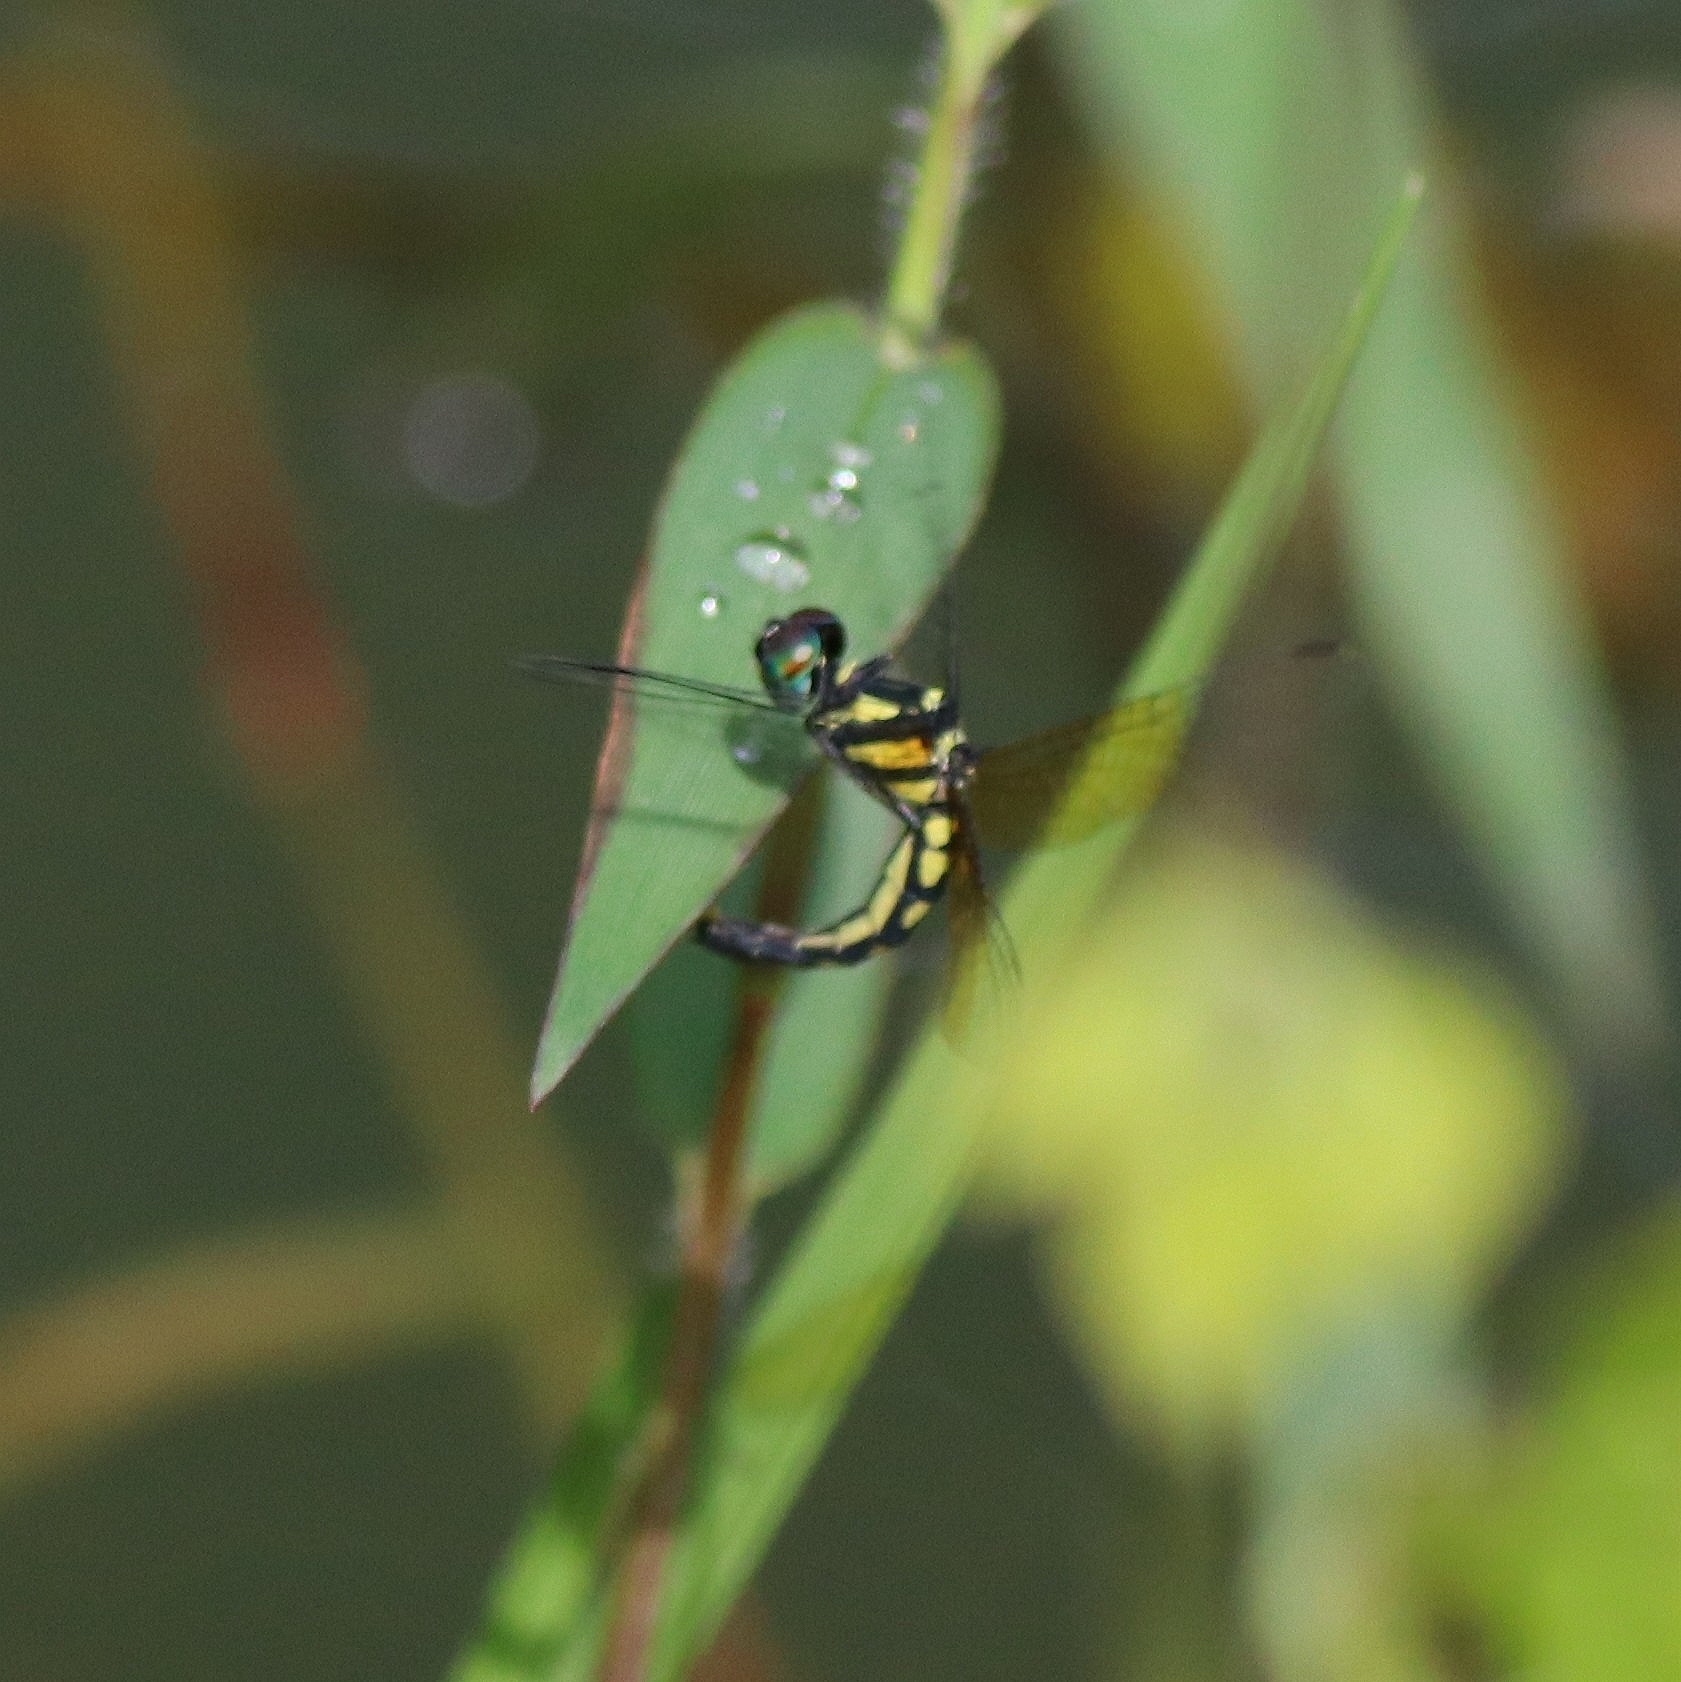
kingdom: Animalia
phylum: Arthropoda
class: Insecta
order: Odonata
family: Libellulidae
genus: Tetrathemis
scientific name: Tetrathemis platyptera
